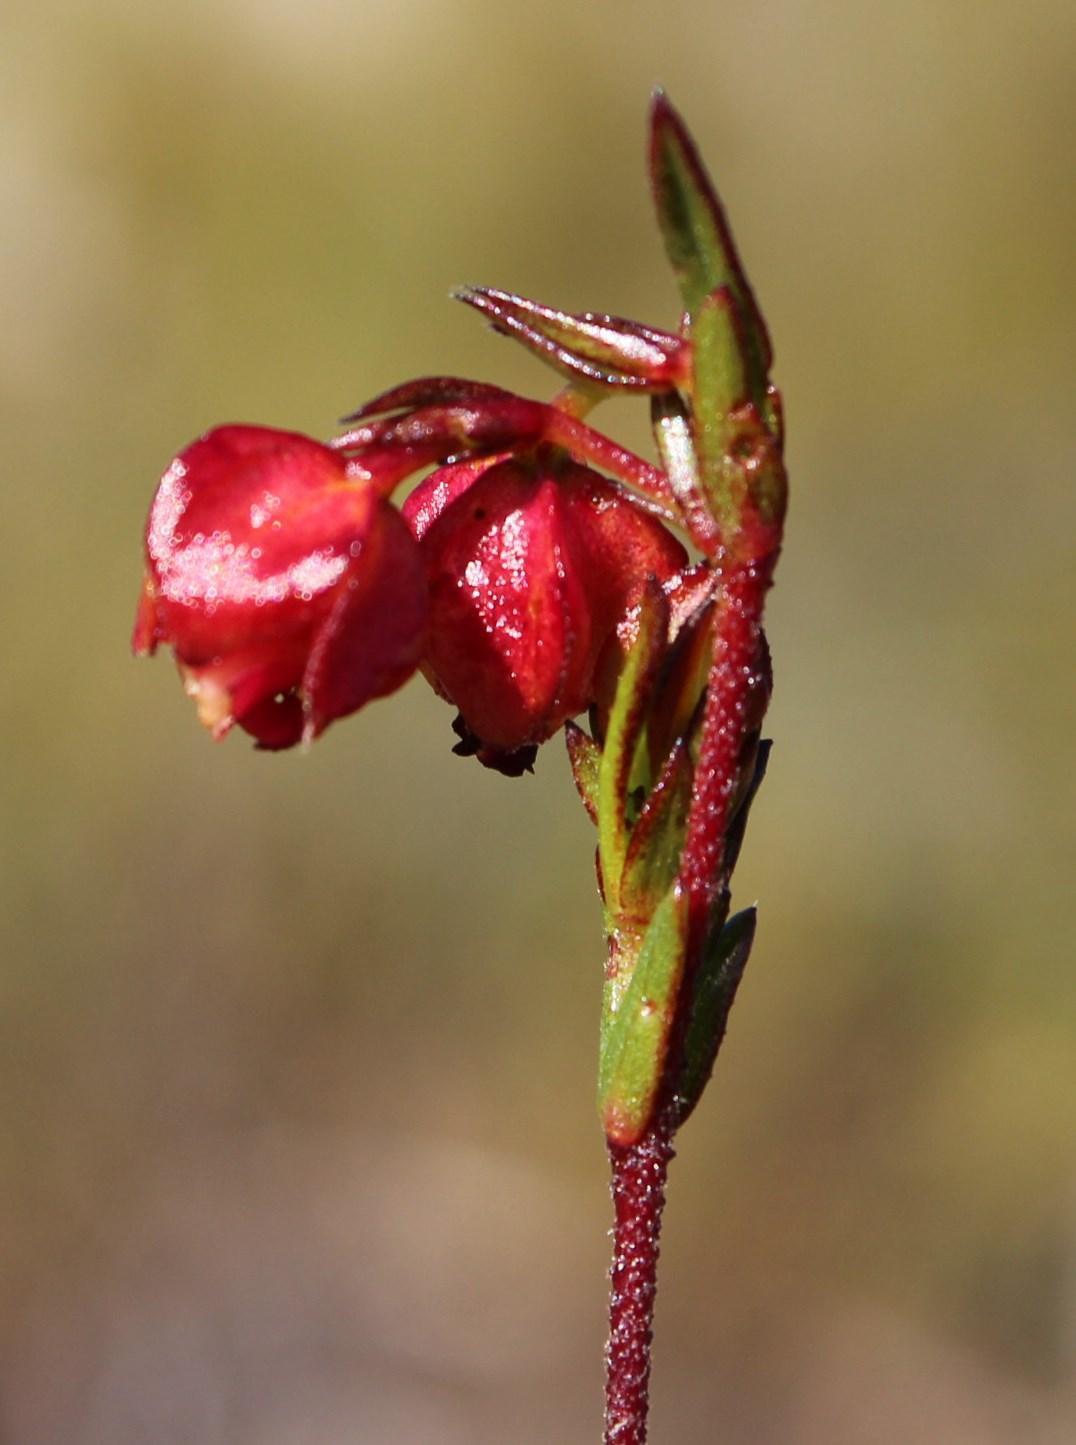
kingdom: Plantae
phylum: Tracheophyta
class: Magnoliopsida
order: Malvales
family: Malvaceae
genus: Hermannia
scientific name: Hermannia angularis
